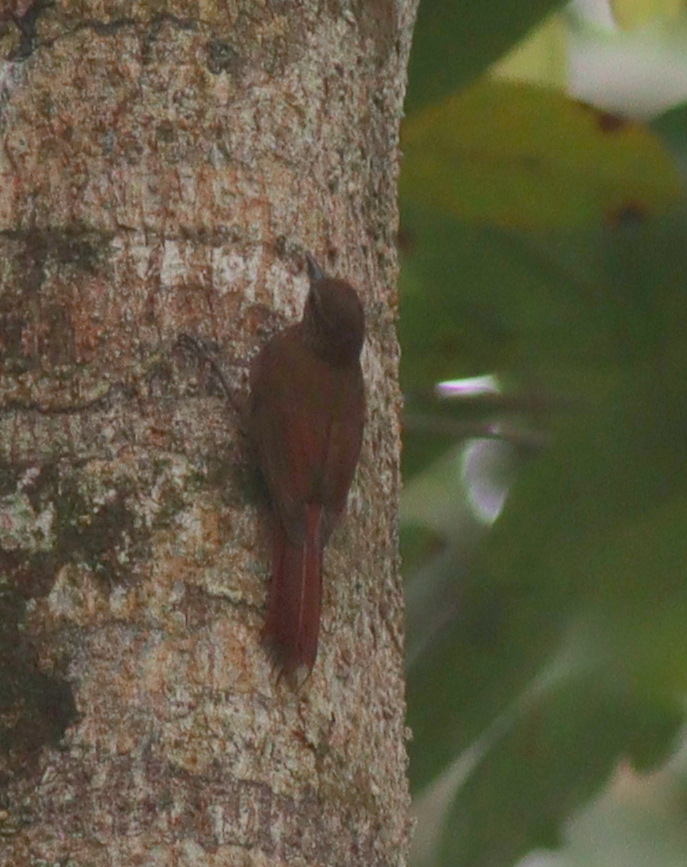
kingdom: Animalia
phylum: Chordata
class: Aves
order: Passeriformes
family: Furnariidae
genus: Glyphorynchus
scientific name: Glyphorynchus spirurus
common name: Wedge-billed woodcreeper
